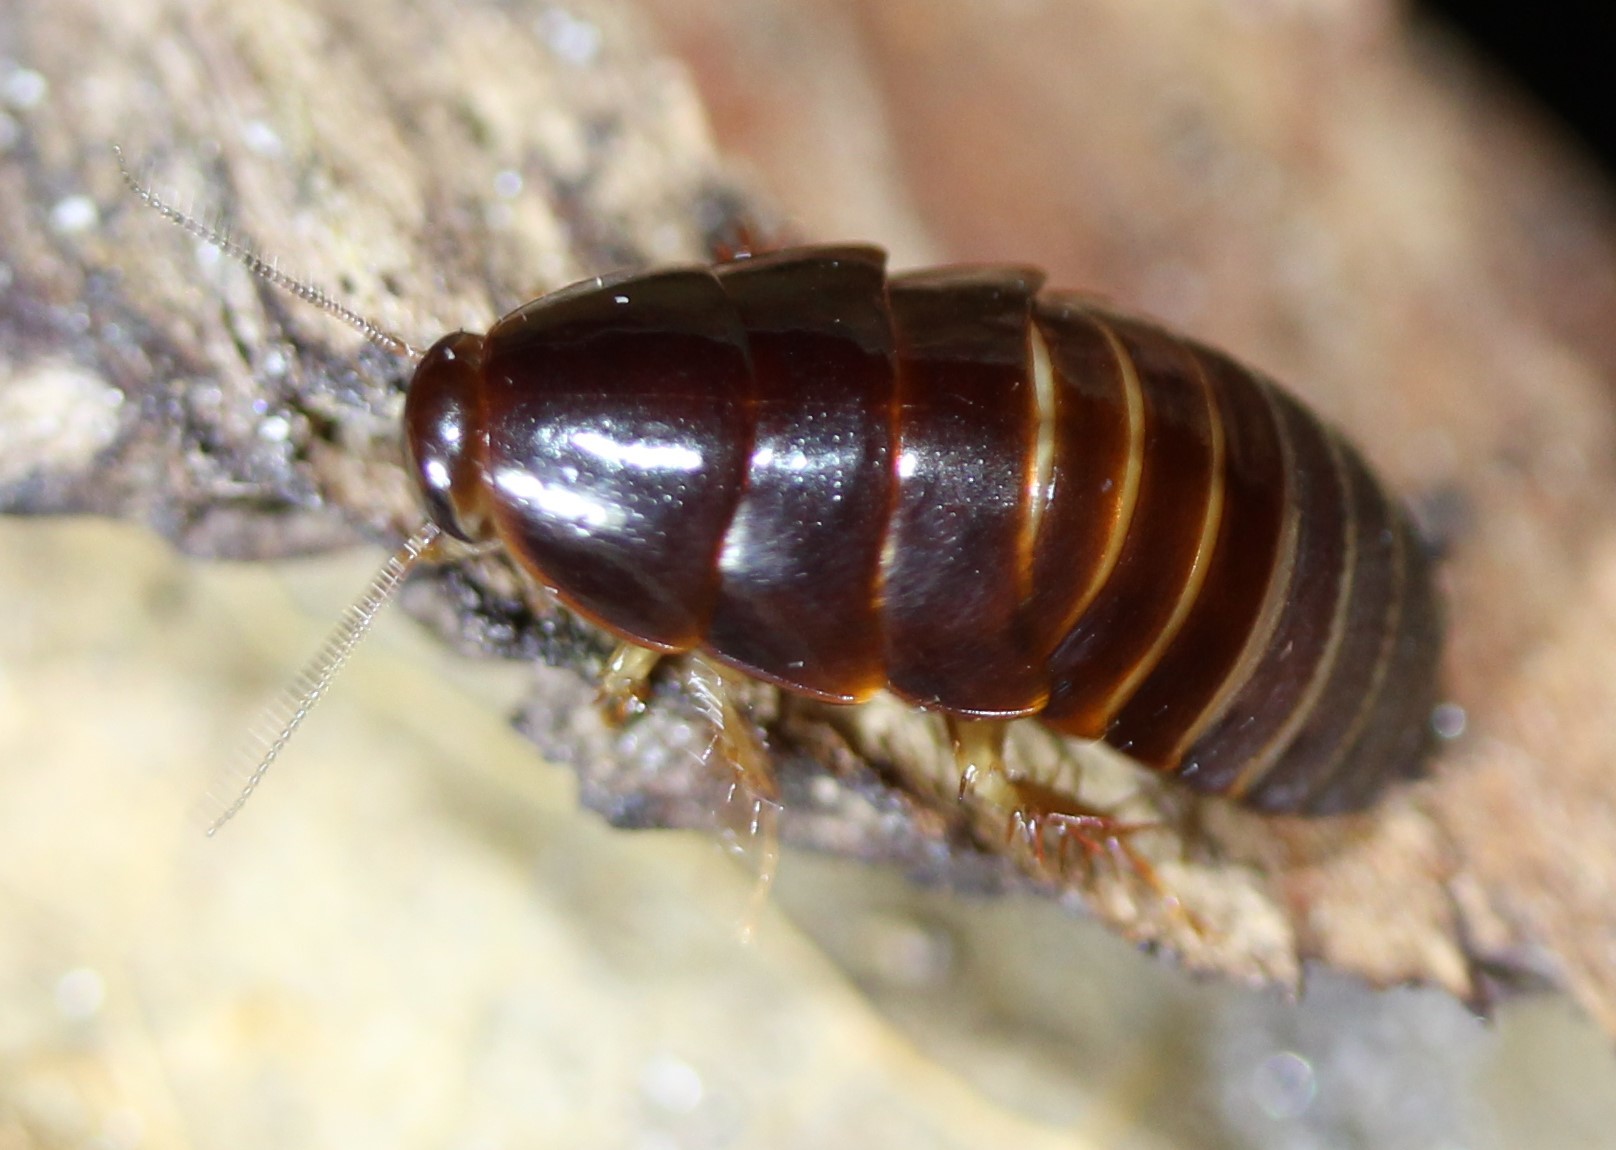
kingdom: Animalia
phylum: Arthropoda
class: Insecta
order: Blattodea
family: Blaberidae
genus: Pycnoscelus
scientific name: Pycnoscelus surinamensis
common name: Surinam cockroach
